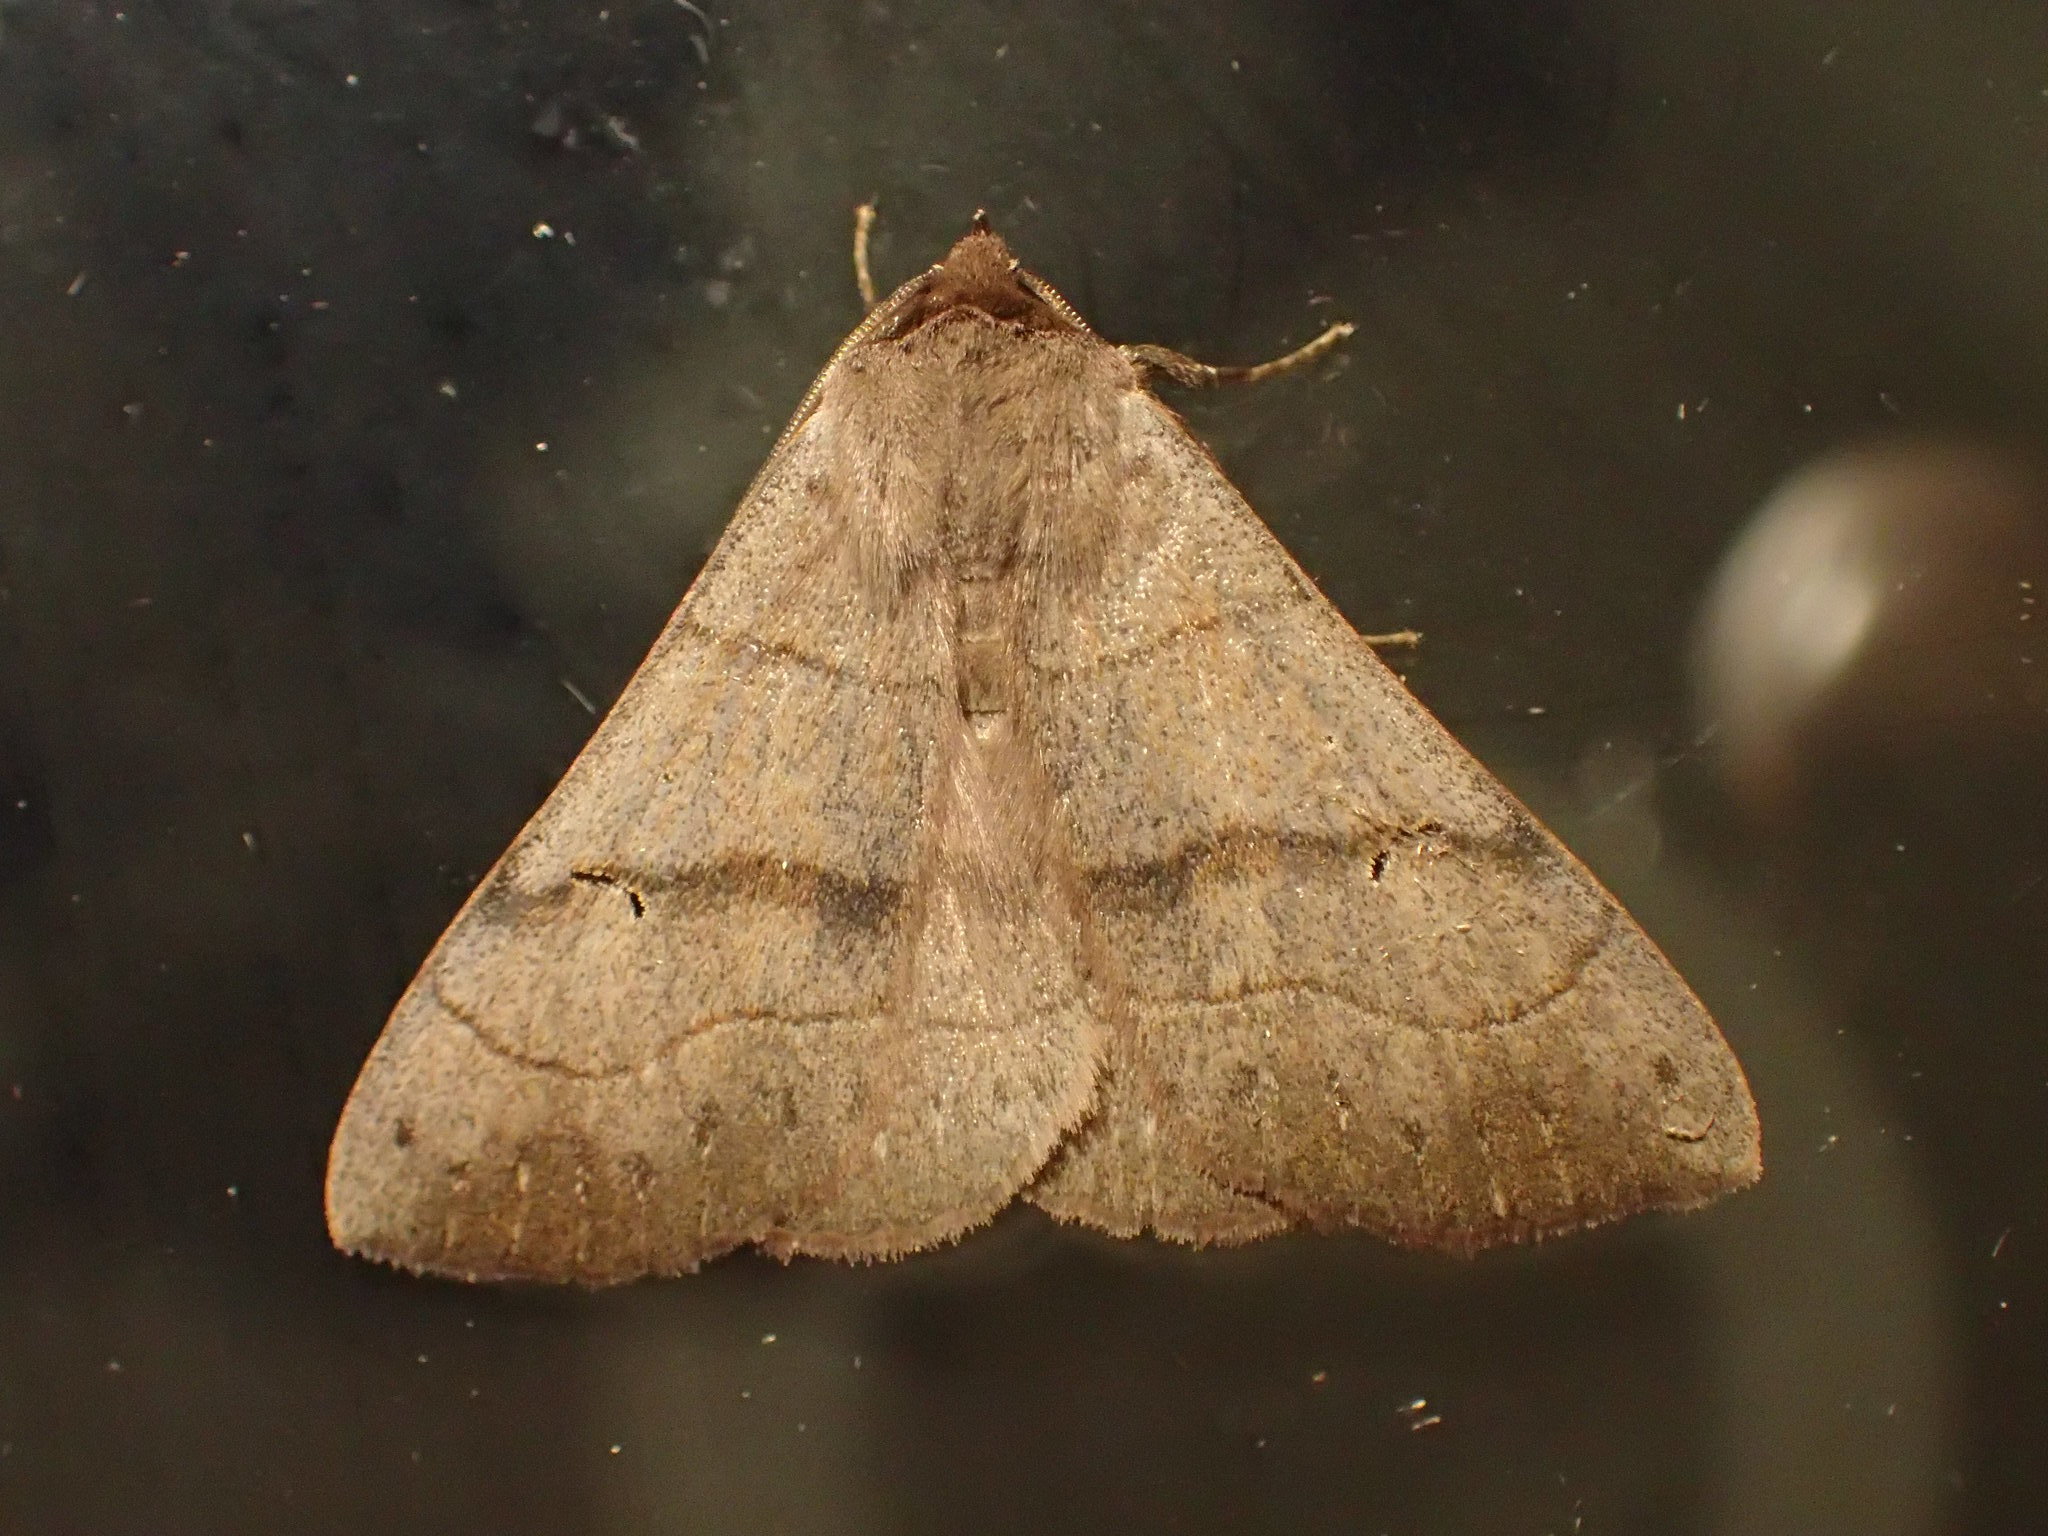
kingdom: Animalia
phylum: Arthropoda
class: Insecta
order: Lepidoptera
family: Erebidae
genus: Panopoda
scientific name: Panopoda carneicosta
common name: Brown panopoda moth
